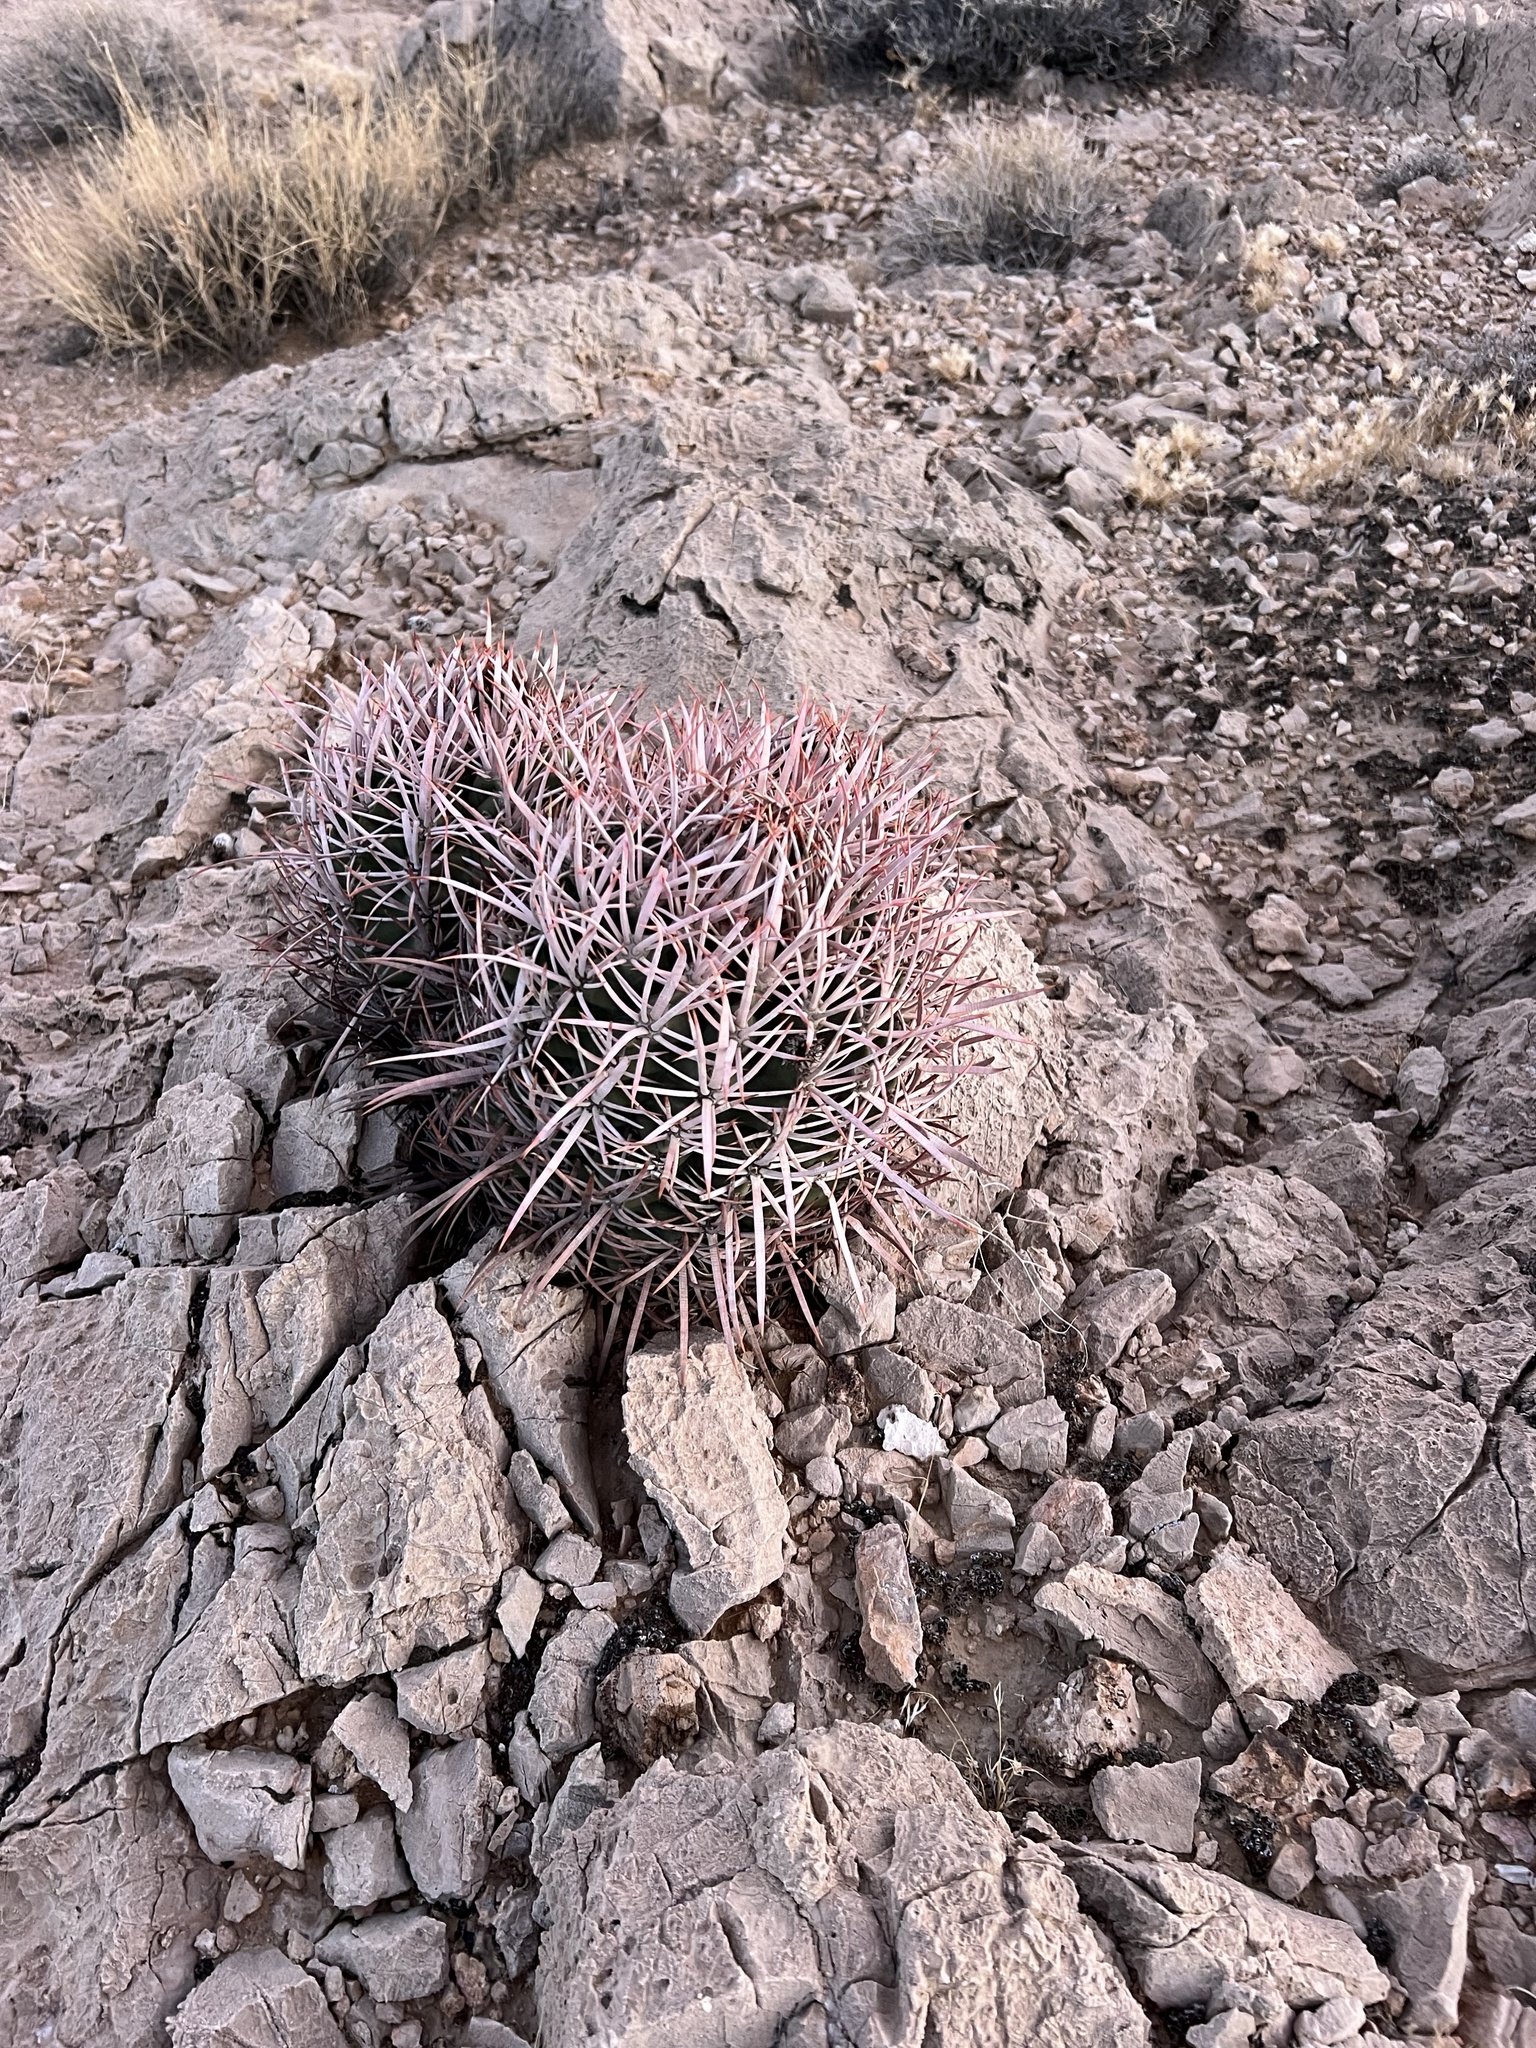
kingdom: Plantae
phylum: Tracheophyta
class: Magnoliopsida
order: Caryophyllales
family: Cactaceae
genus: Echinocactus
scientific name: Echinocactus polycephalus
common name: Cottontop cactus
